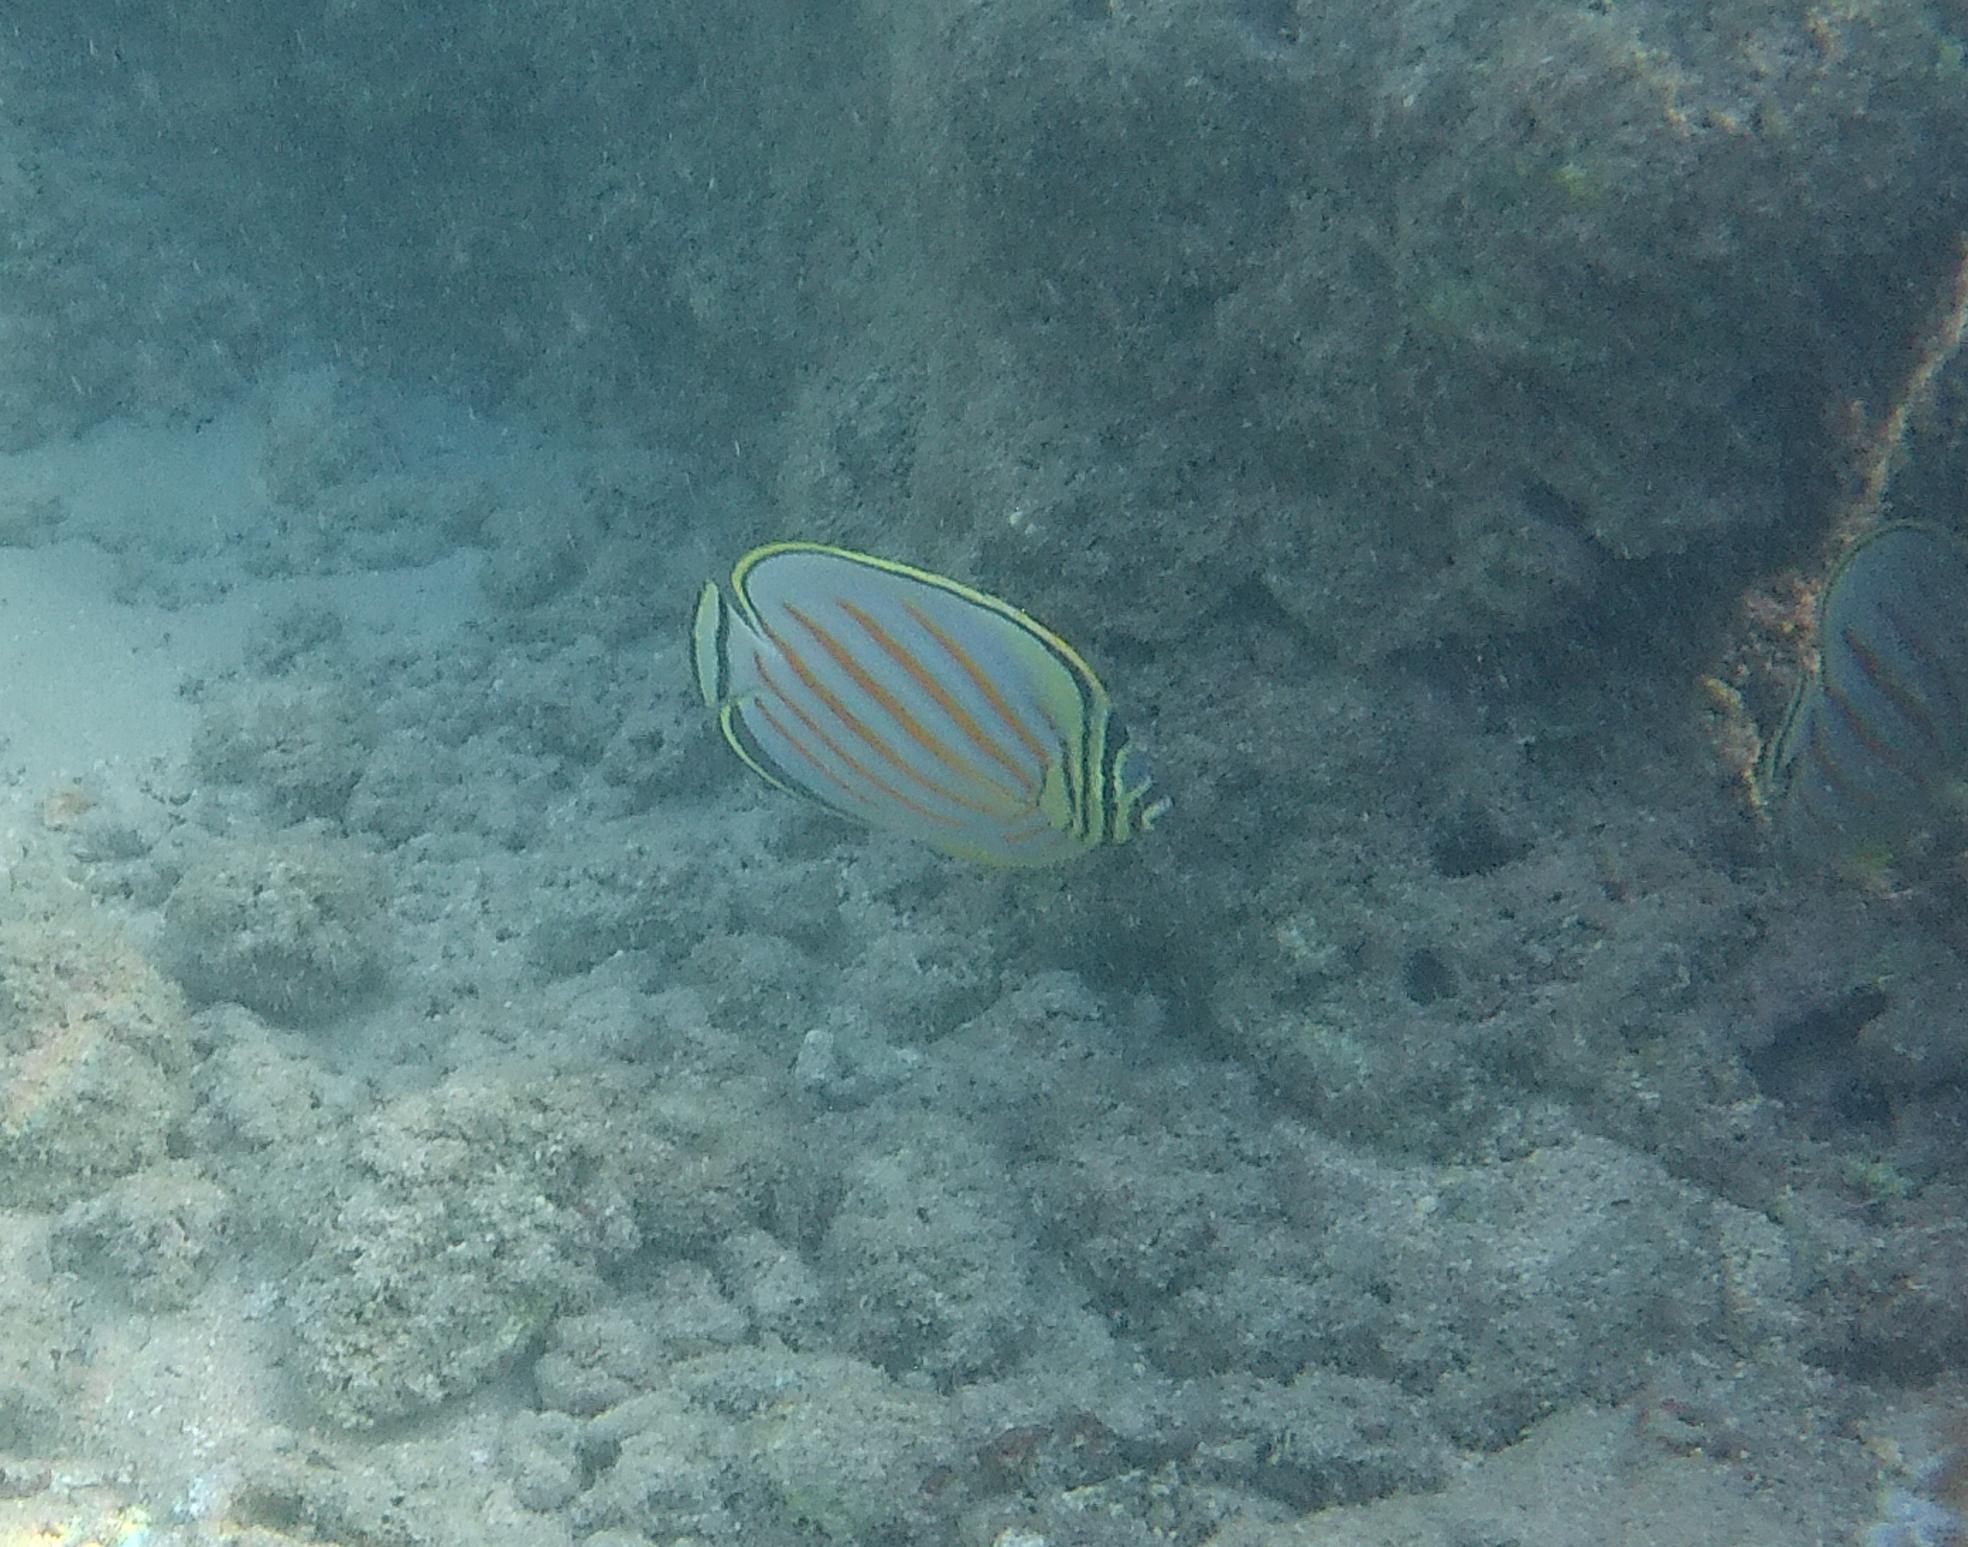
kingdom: Animalia
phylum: Chordata
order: Perciformes
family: Chaetodontidae
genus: Chaetodon
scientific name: Chaetodon ornatissimus
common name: Ornate butterflyfish
